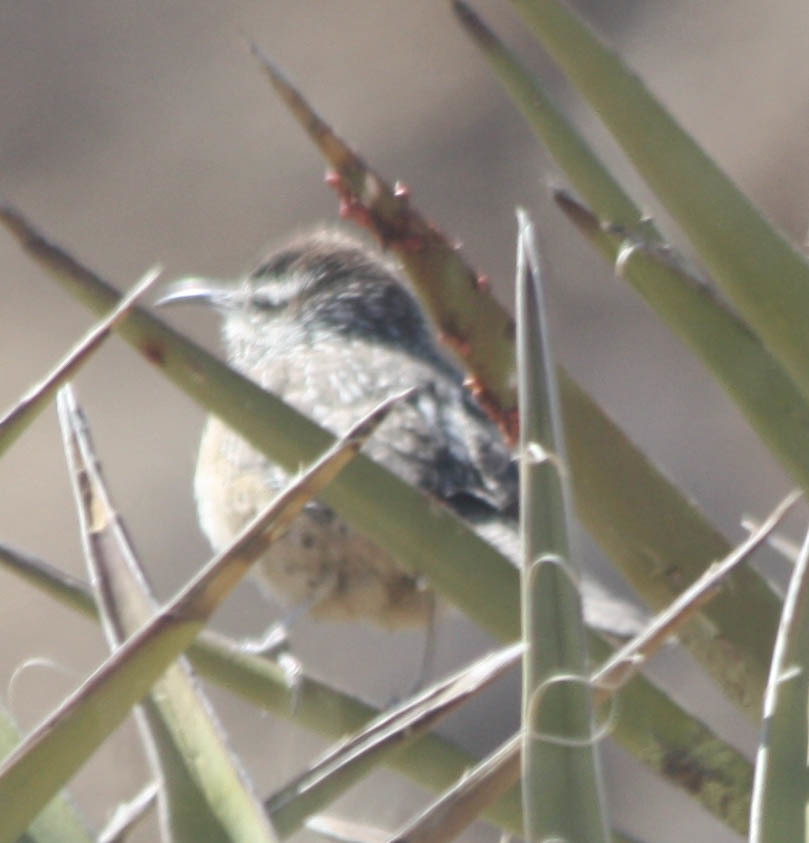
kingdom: Animalia
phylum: Chordata
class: Aves
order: Passeriformes
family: Troglodytidae
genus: Campylorhynchus
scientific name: Campylorhynchus brunneicapillus
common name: Cactus wren
